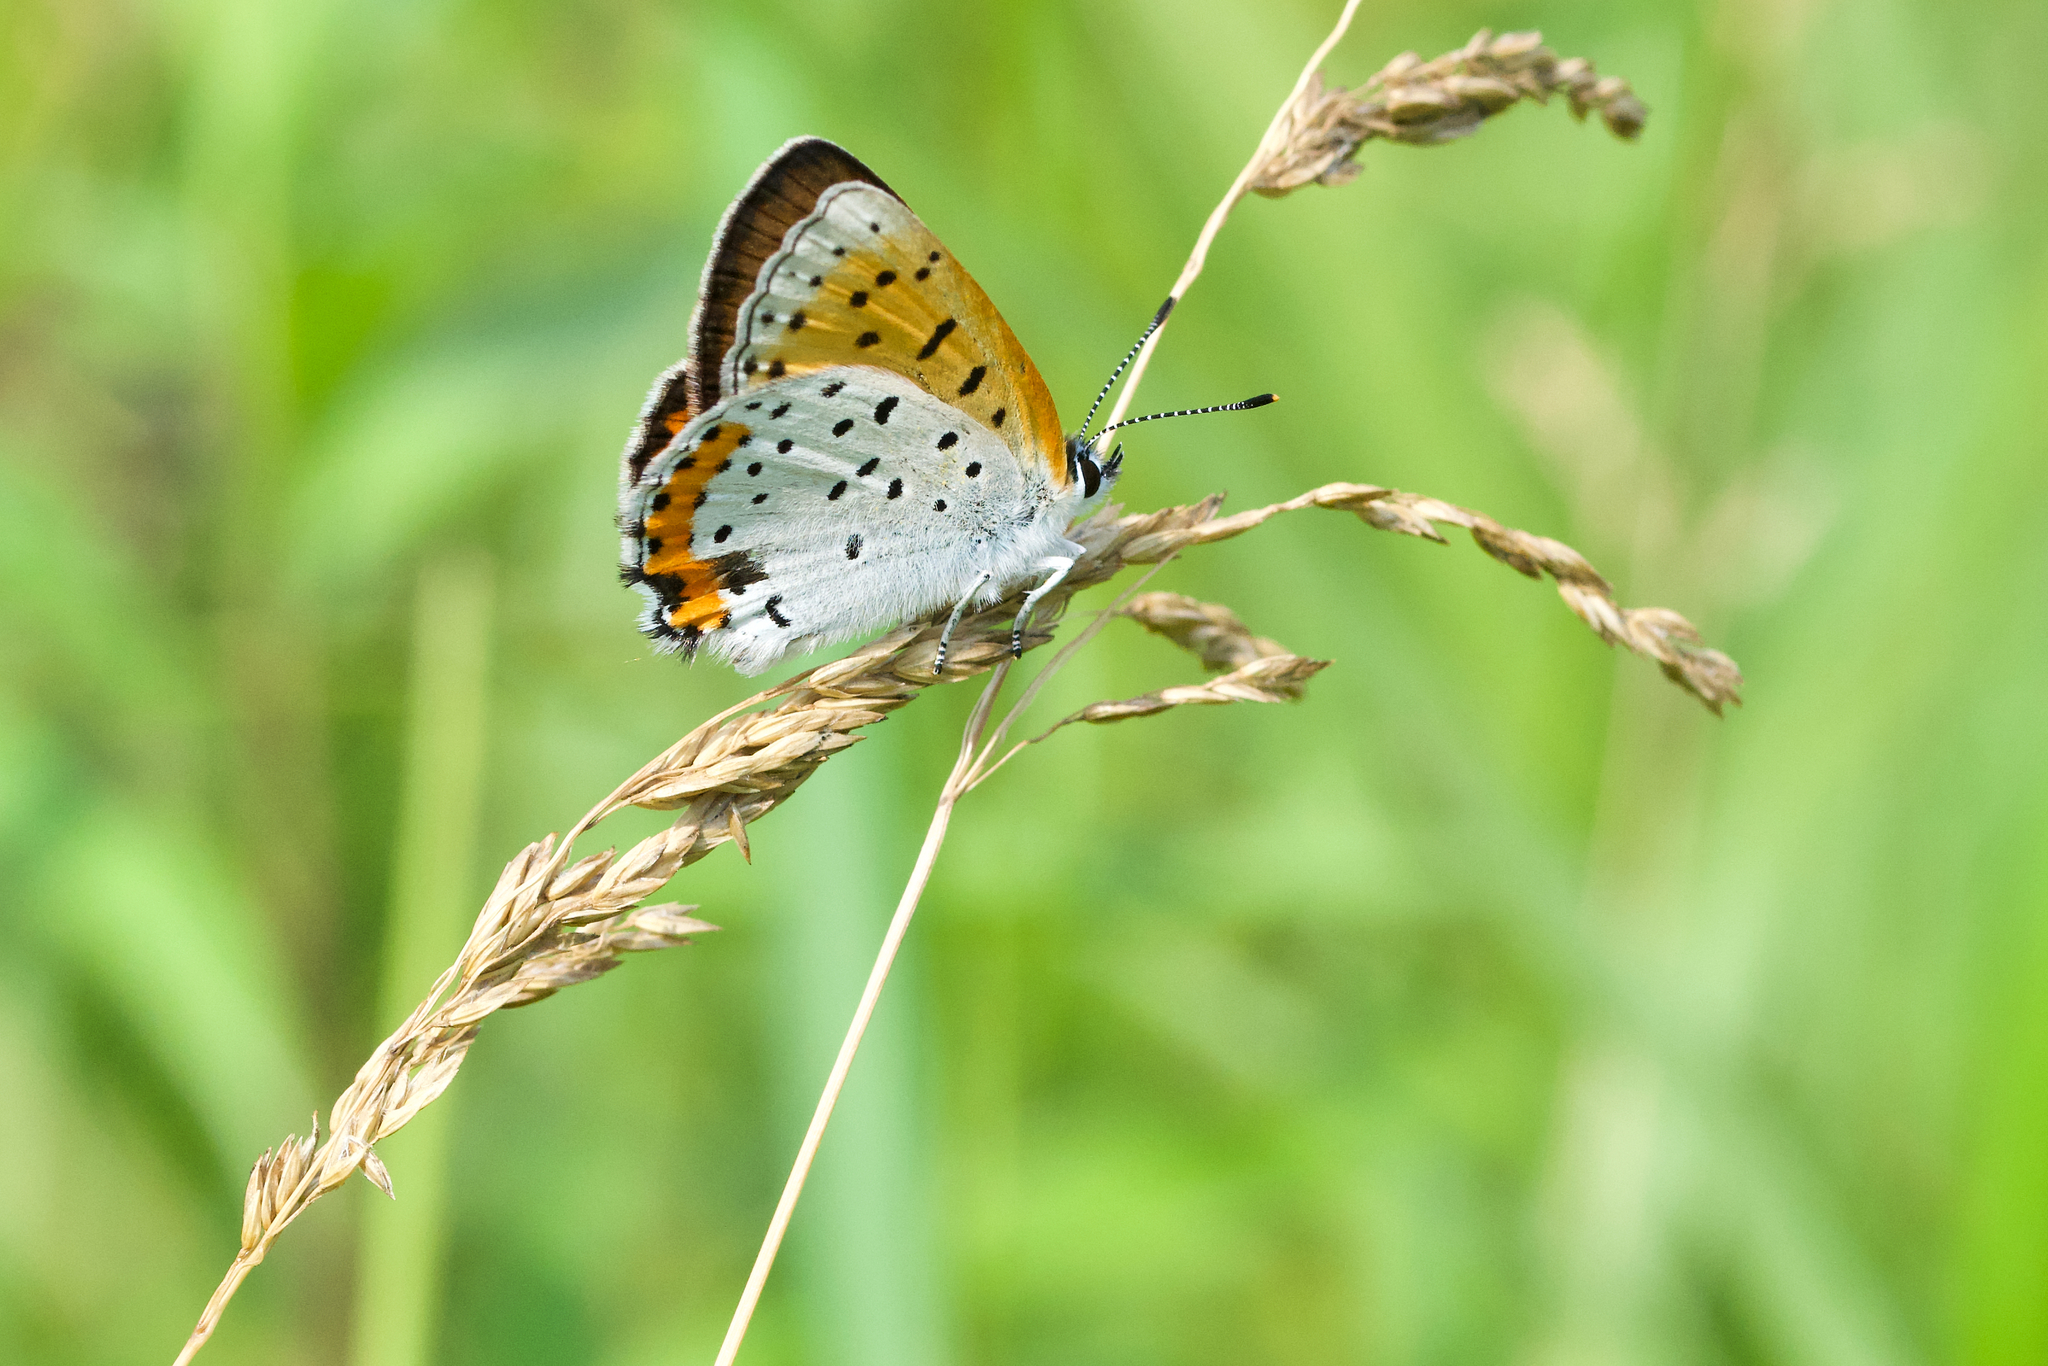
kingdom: Animalia
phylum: Arthropoda
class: Insecta
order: Lepidoptera
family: Lycaenidae
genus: Tharsalea
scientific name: Tharsalea hyllus
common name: Bronze copper
